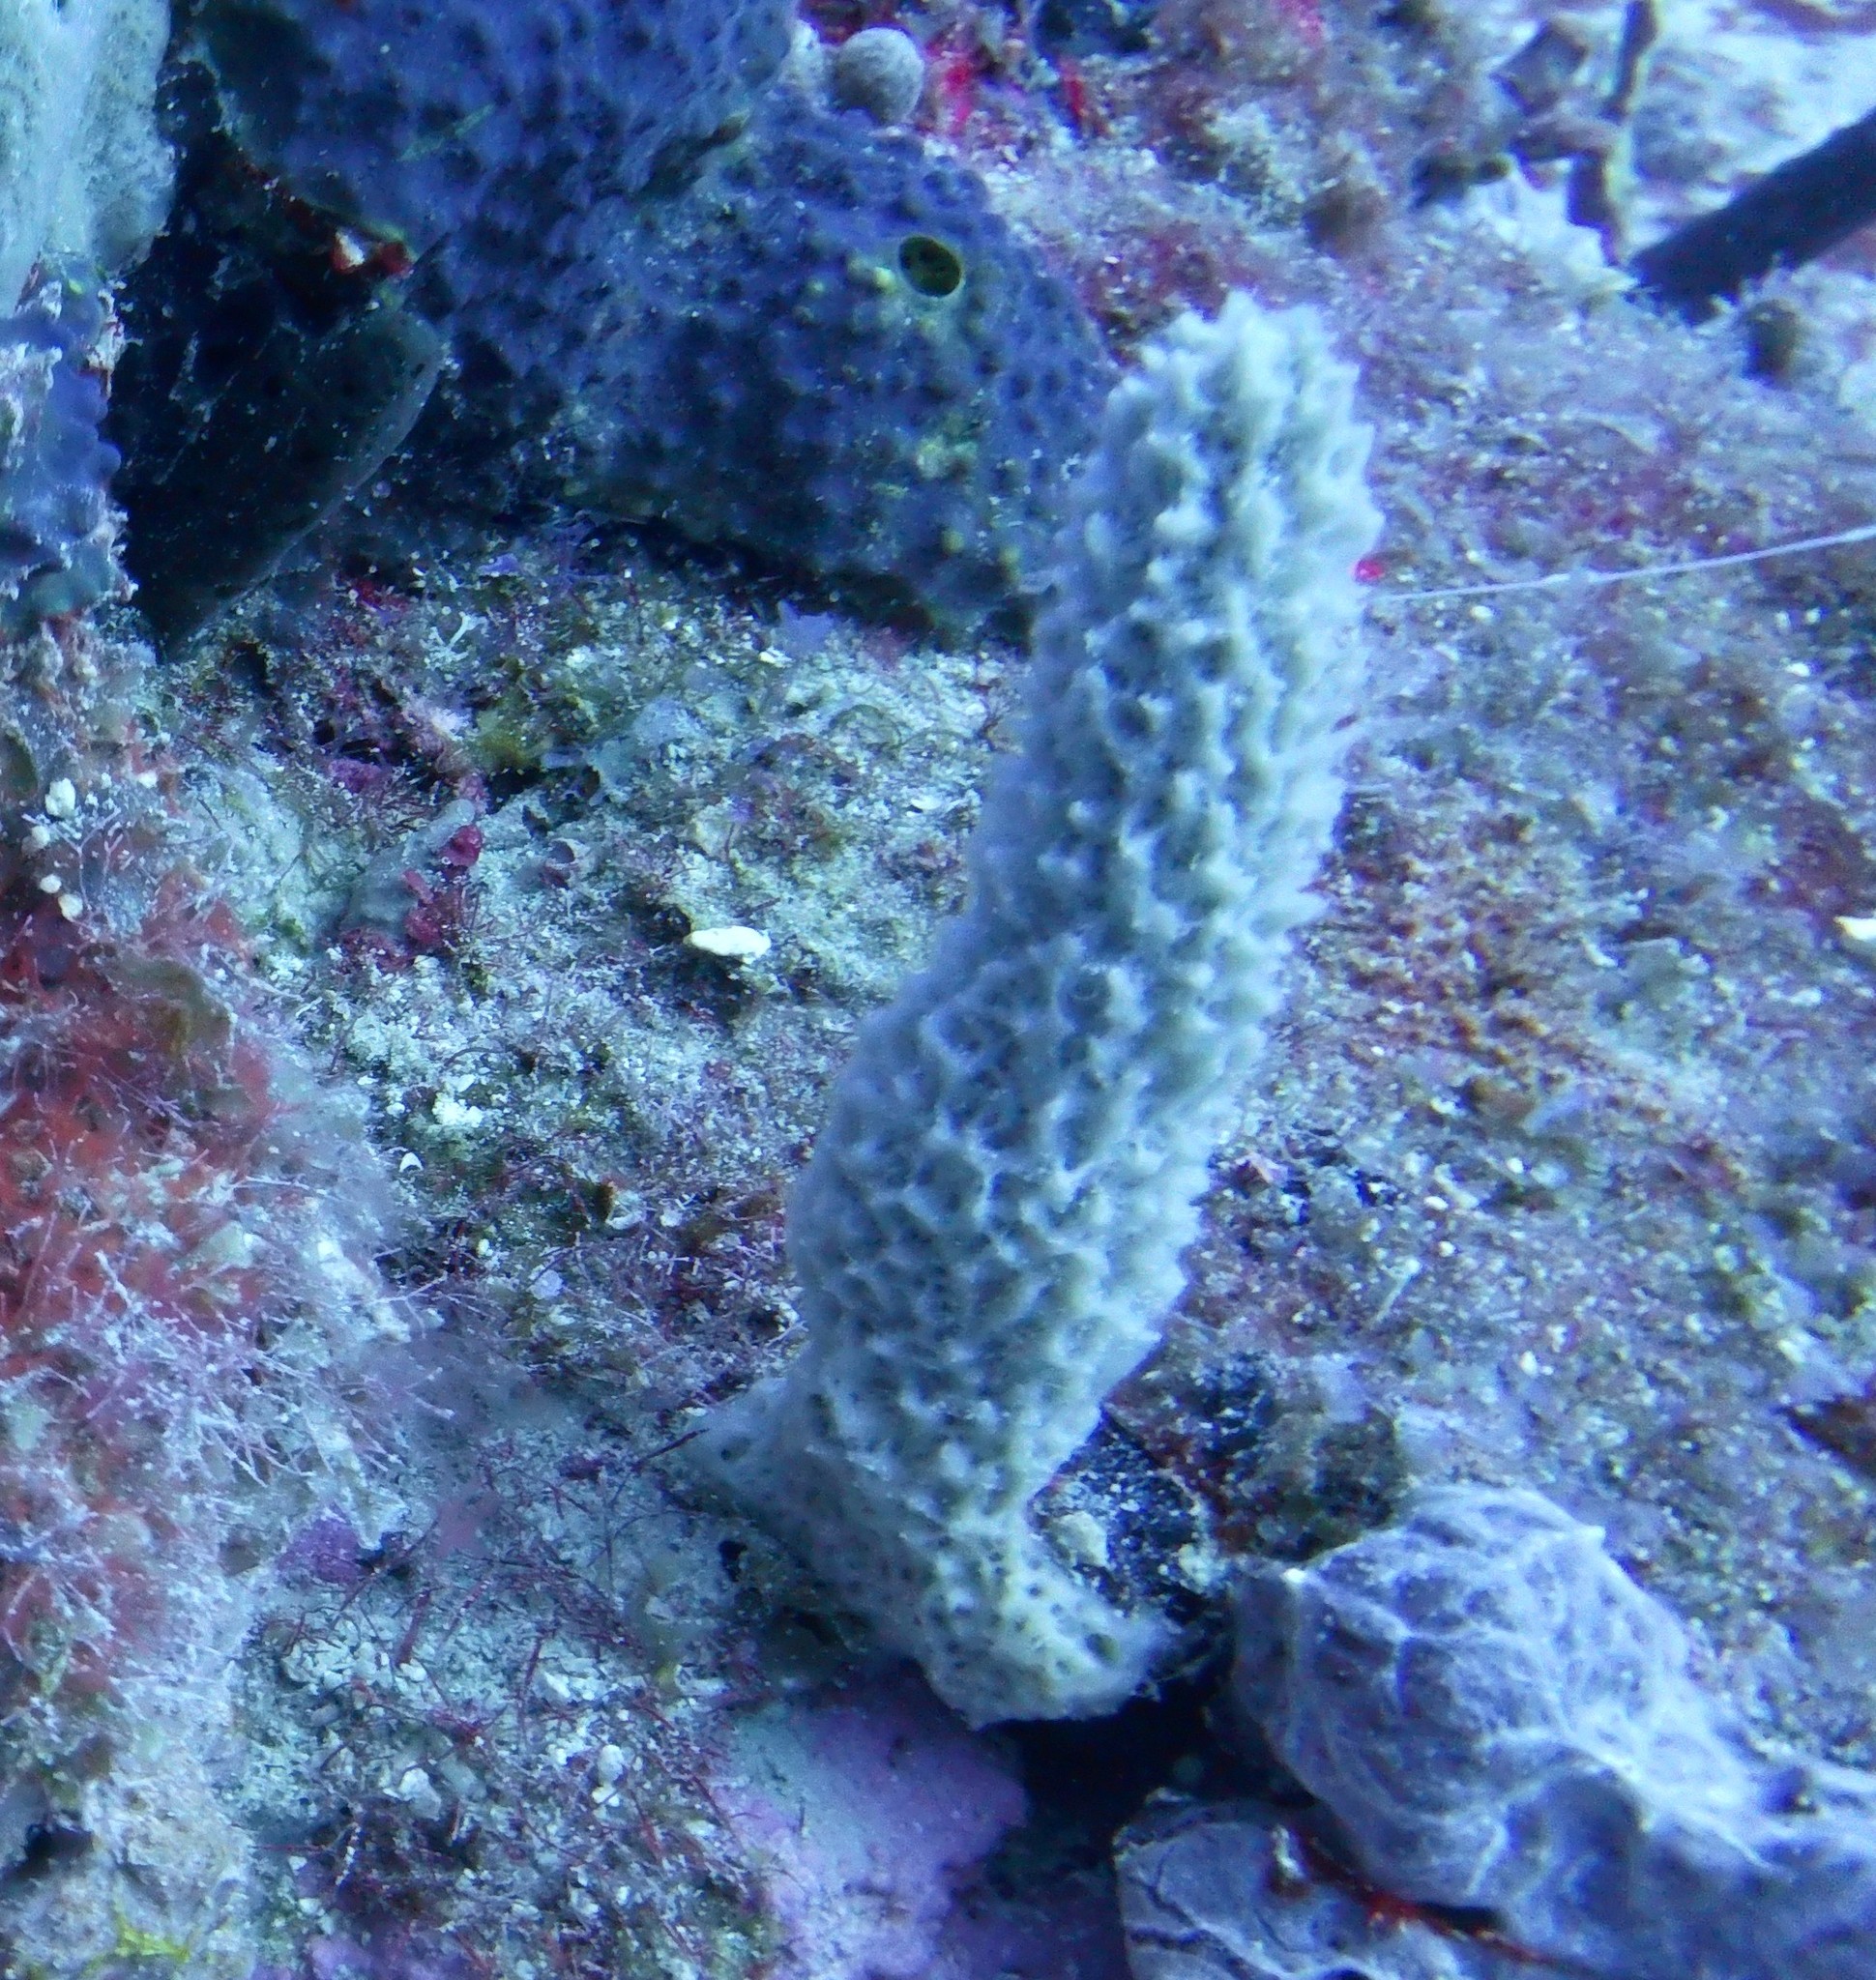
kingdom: Animalia
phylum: Porifera
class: Demospongiae
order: Haplosclerida
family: Niphatidae
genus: Niphates
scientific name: Niphates erecta
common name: Lavender rope sponge
